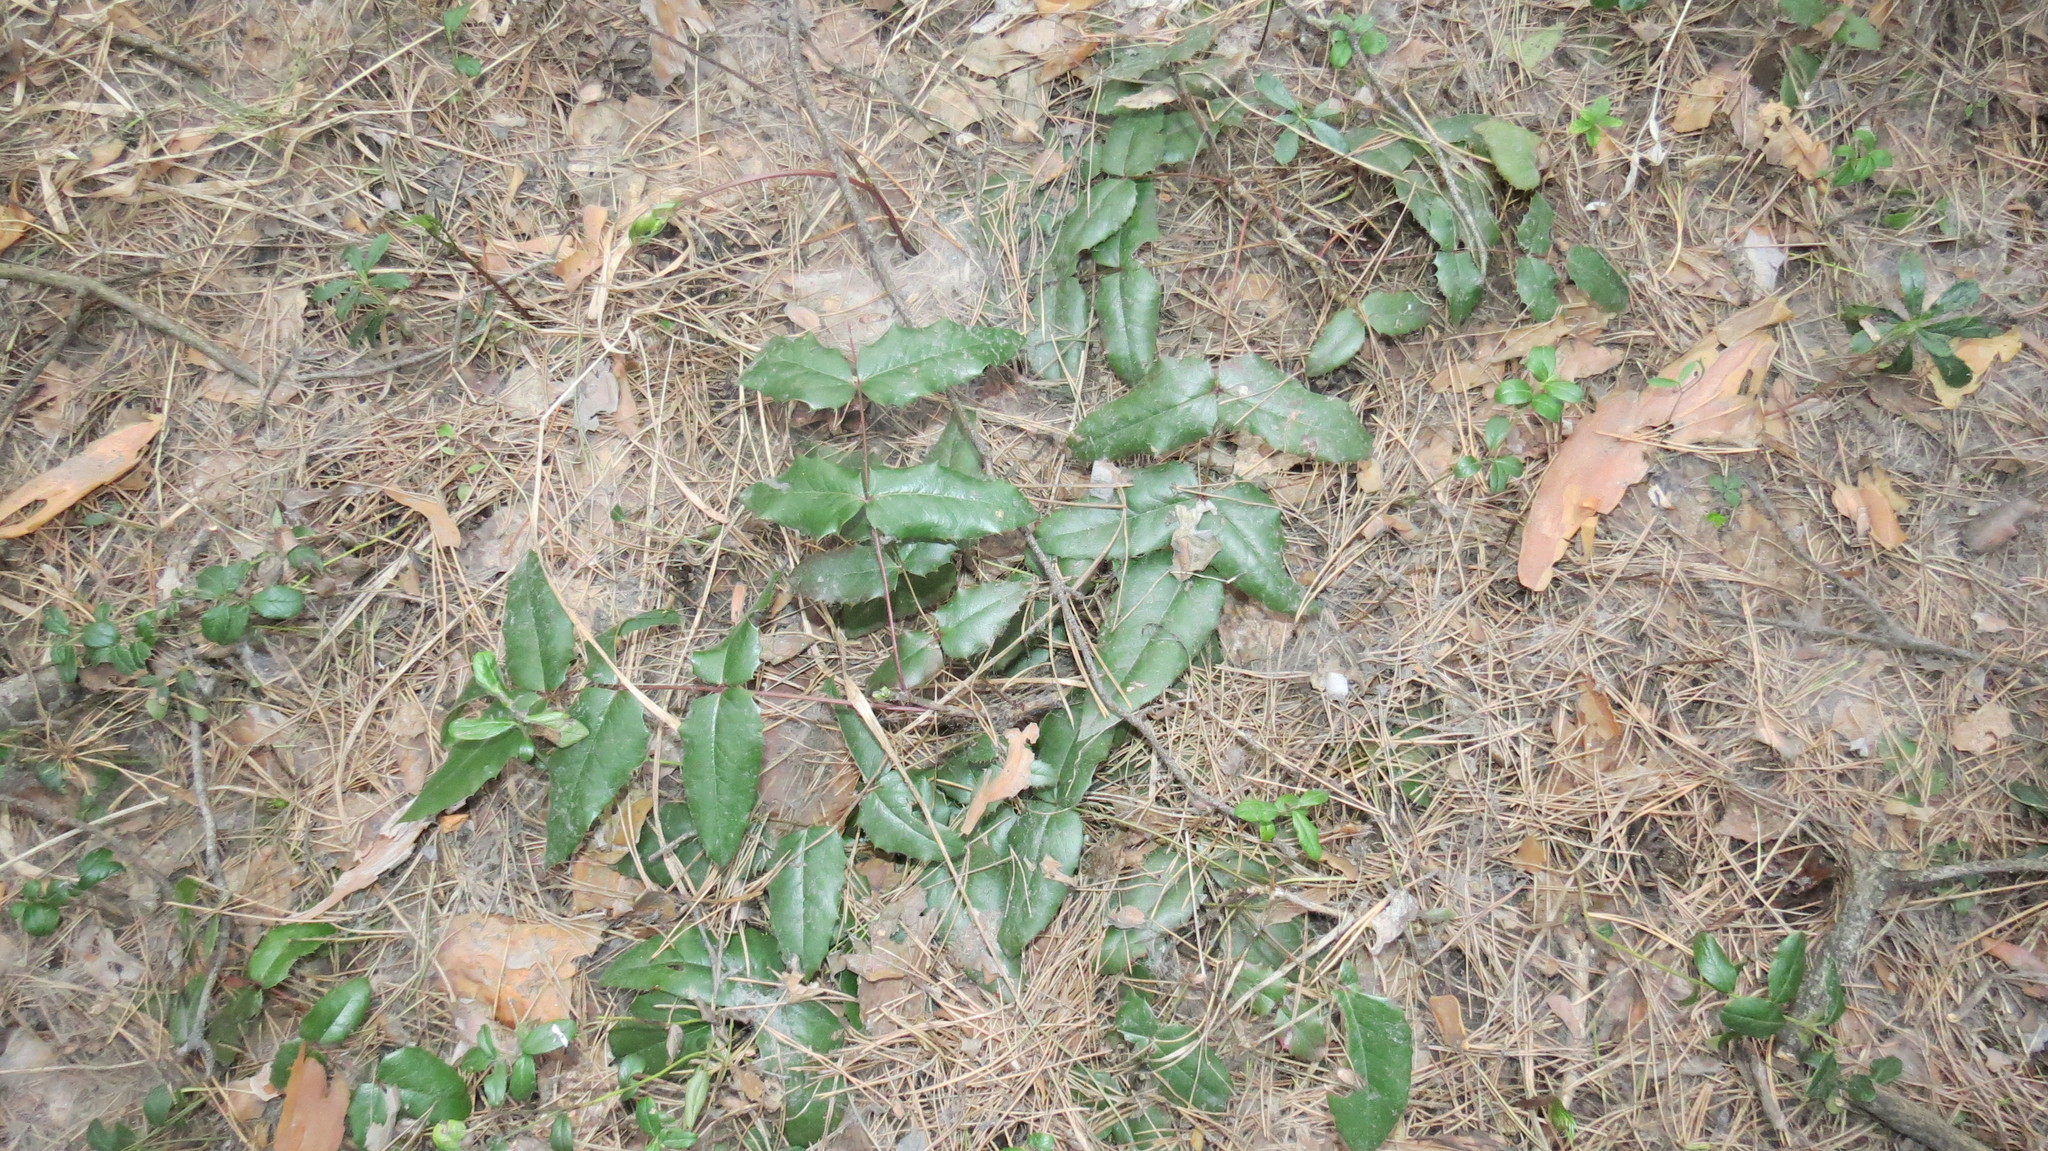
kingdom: Plantae
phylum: Tracheophyta
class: Magnoliopsida
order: Ranunculales
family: Berberidaceae
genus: Mahonia
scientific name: Mahonia aquifolium
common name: Oregon-grape
